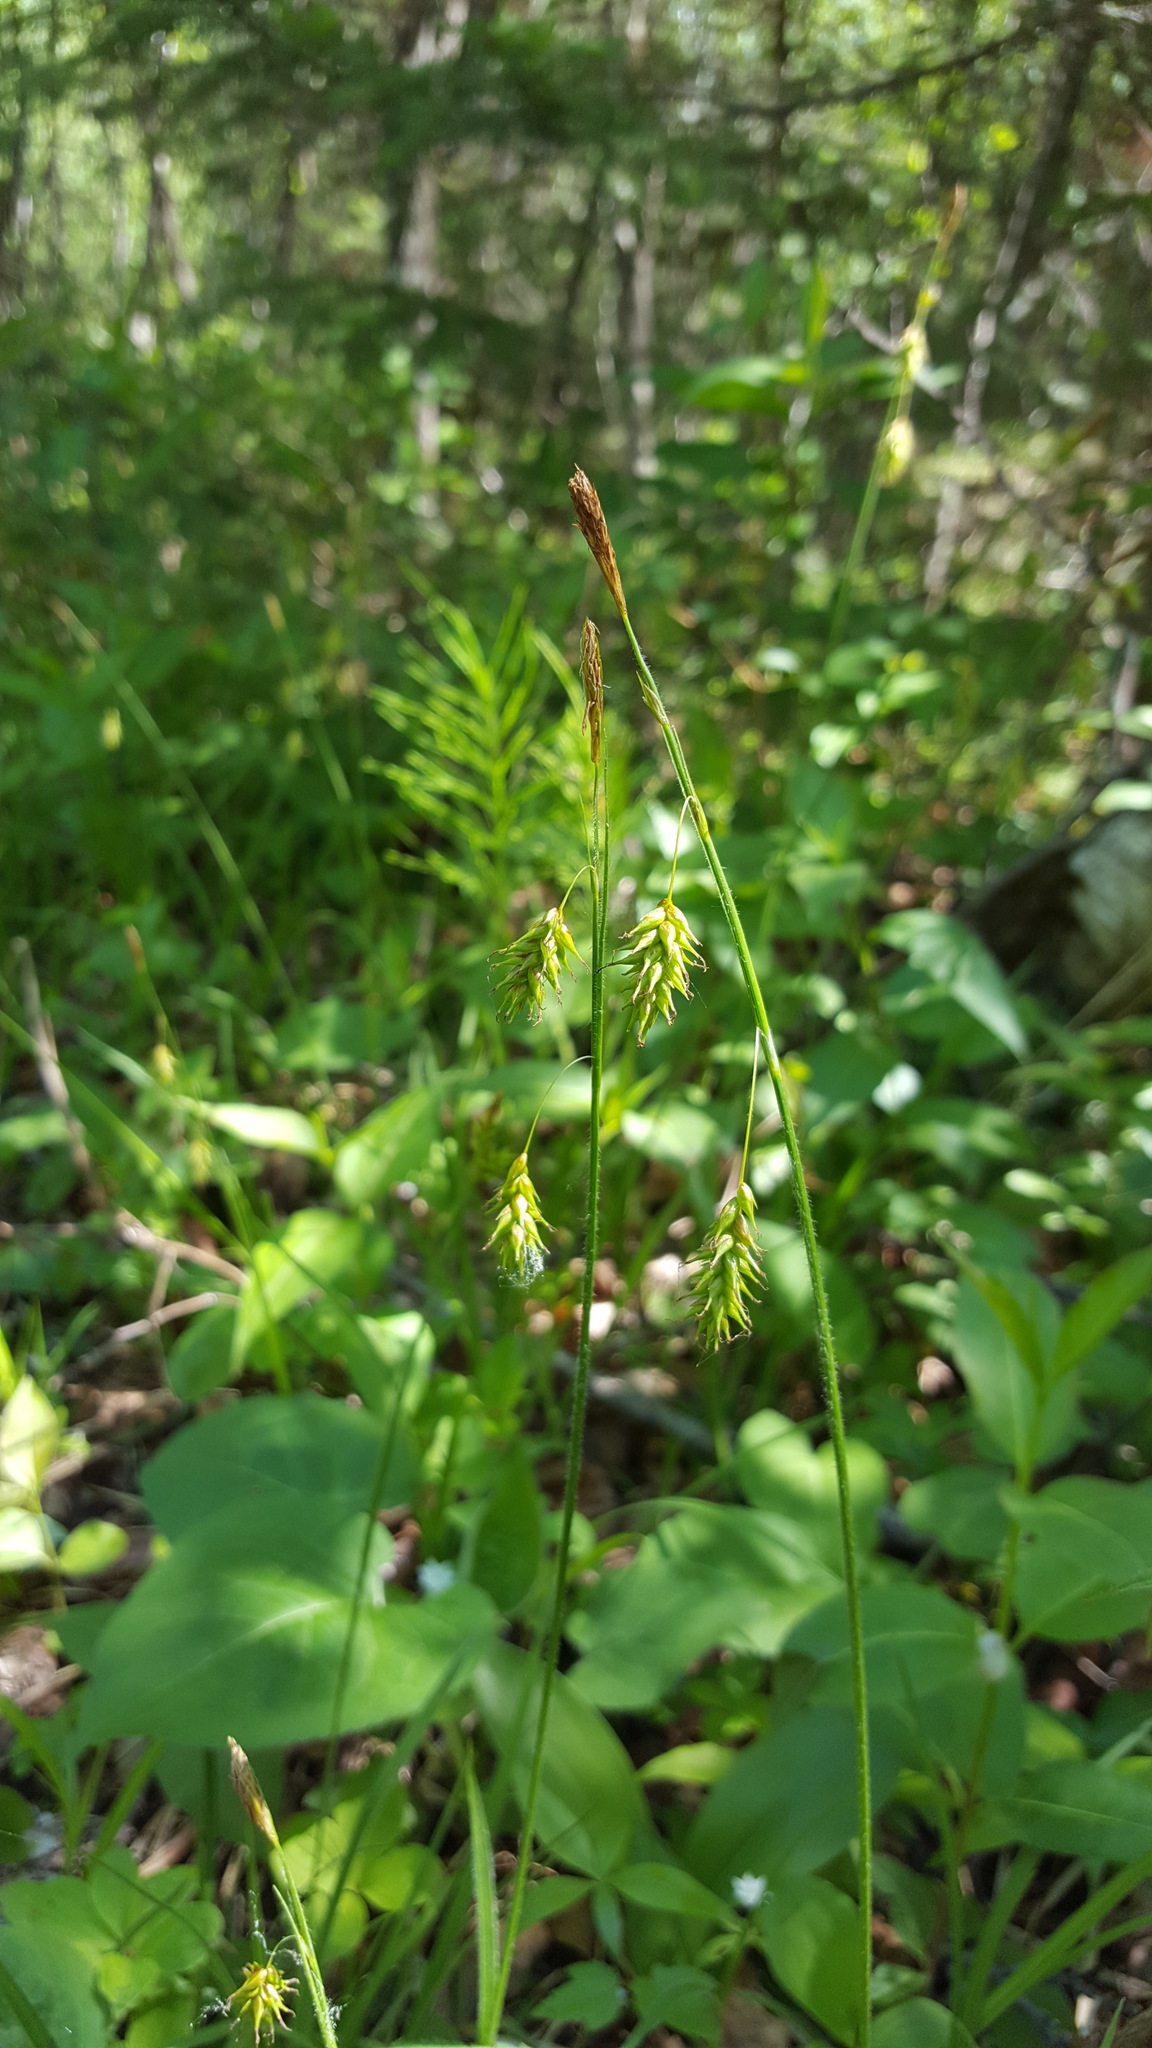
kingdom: Plantae
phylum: Tracheophyta
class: Liliopsida
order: Poales
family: Cyperaceae
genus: Carex
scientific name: Carex castanea
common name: Chestnut sedge
